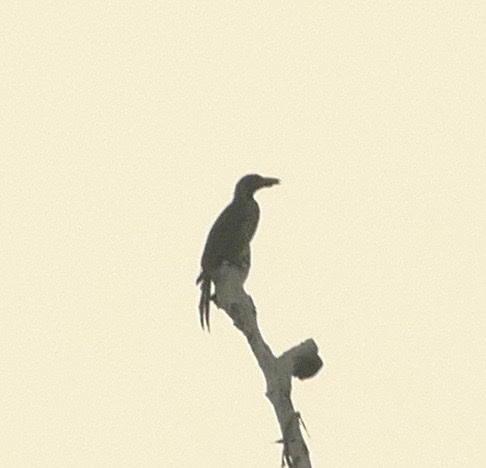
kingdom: Animalia
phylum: Chordata
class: Aves
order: Passeriformes
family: Oriolidae
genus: Oriolus
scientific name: Oriolus szalayi
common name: Brown oriole
